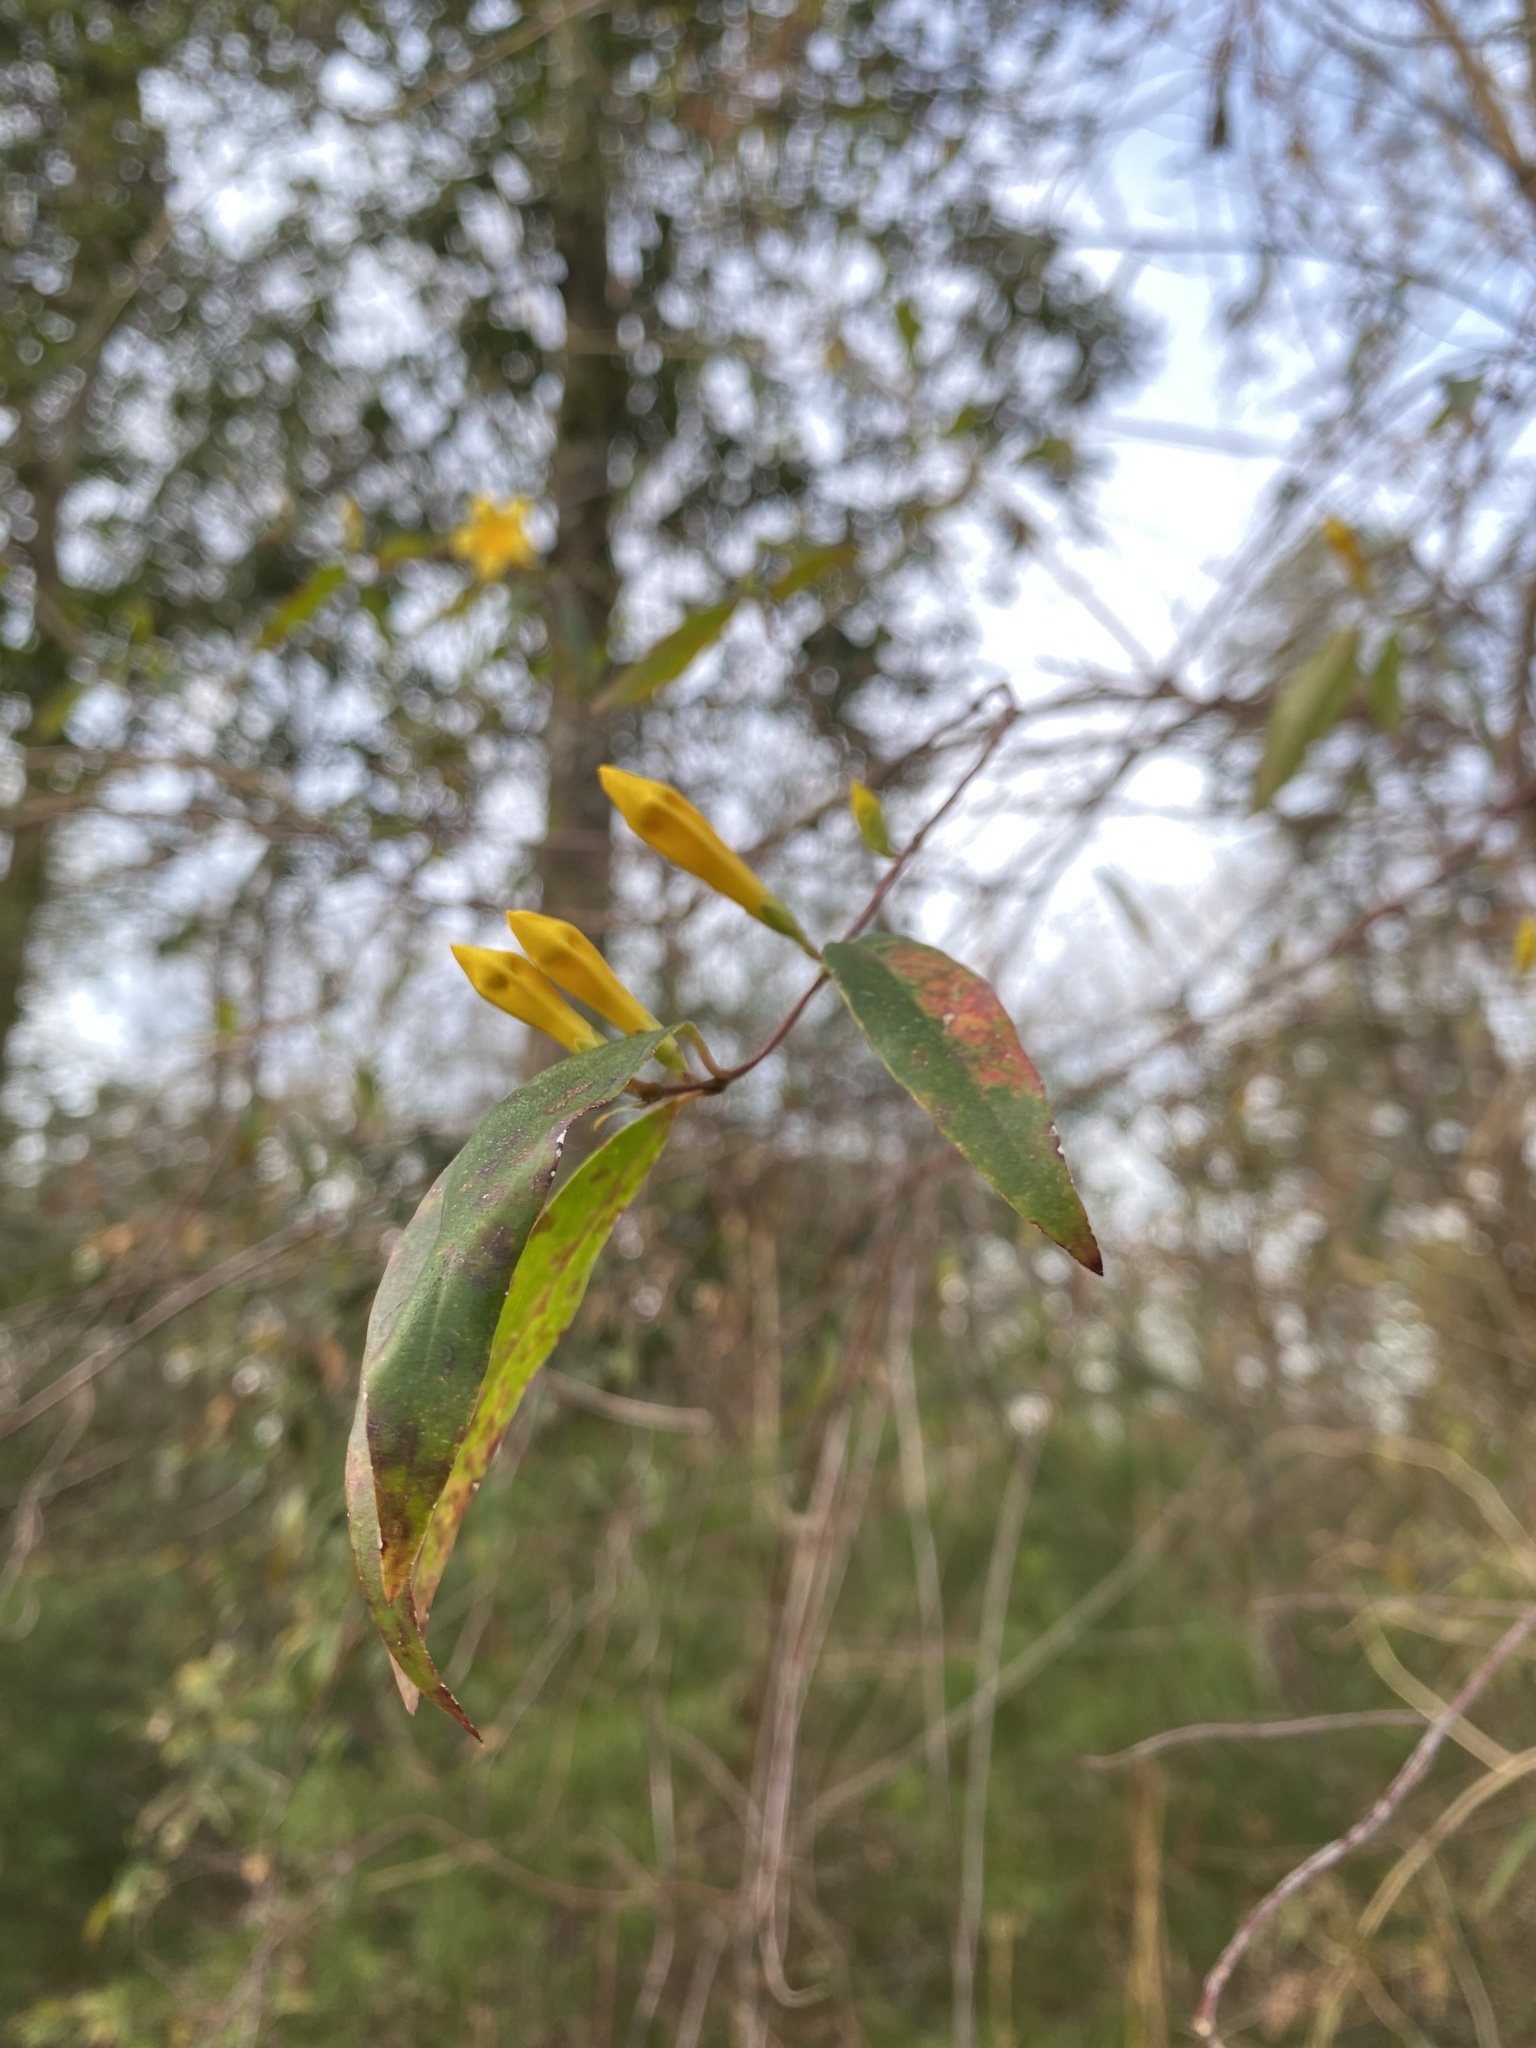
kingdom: Plantae
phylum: Tracheophyta
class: Magnoliopsida
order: Gentianales
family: Gelsemiaceae
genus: Gelsemium
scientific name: Gelsemium sempervirens
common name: Carolina-jasmine
